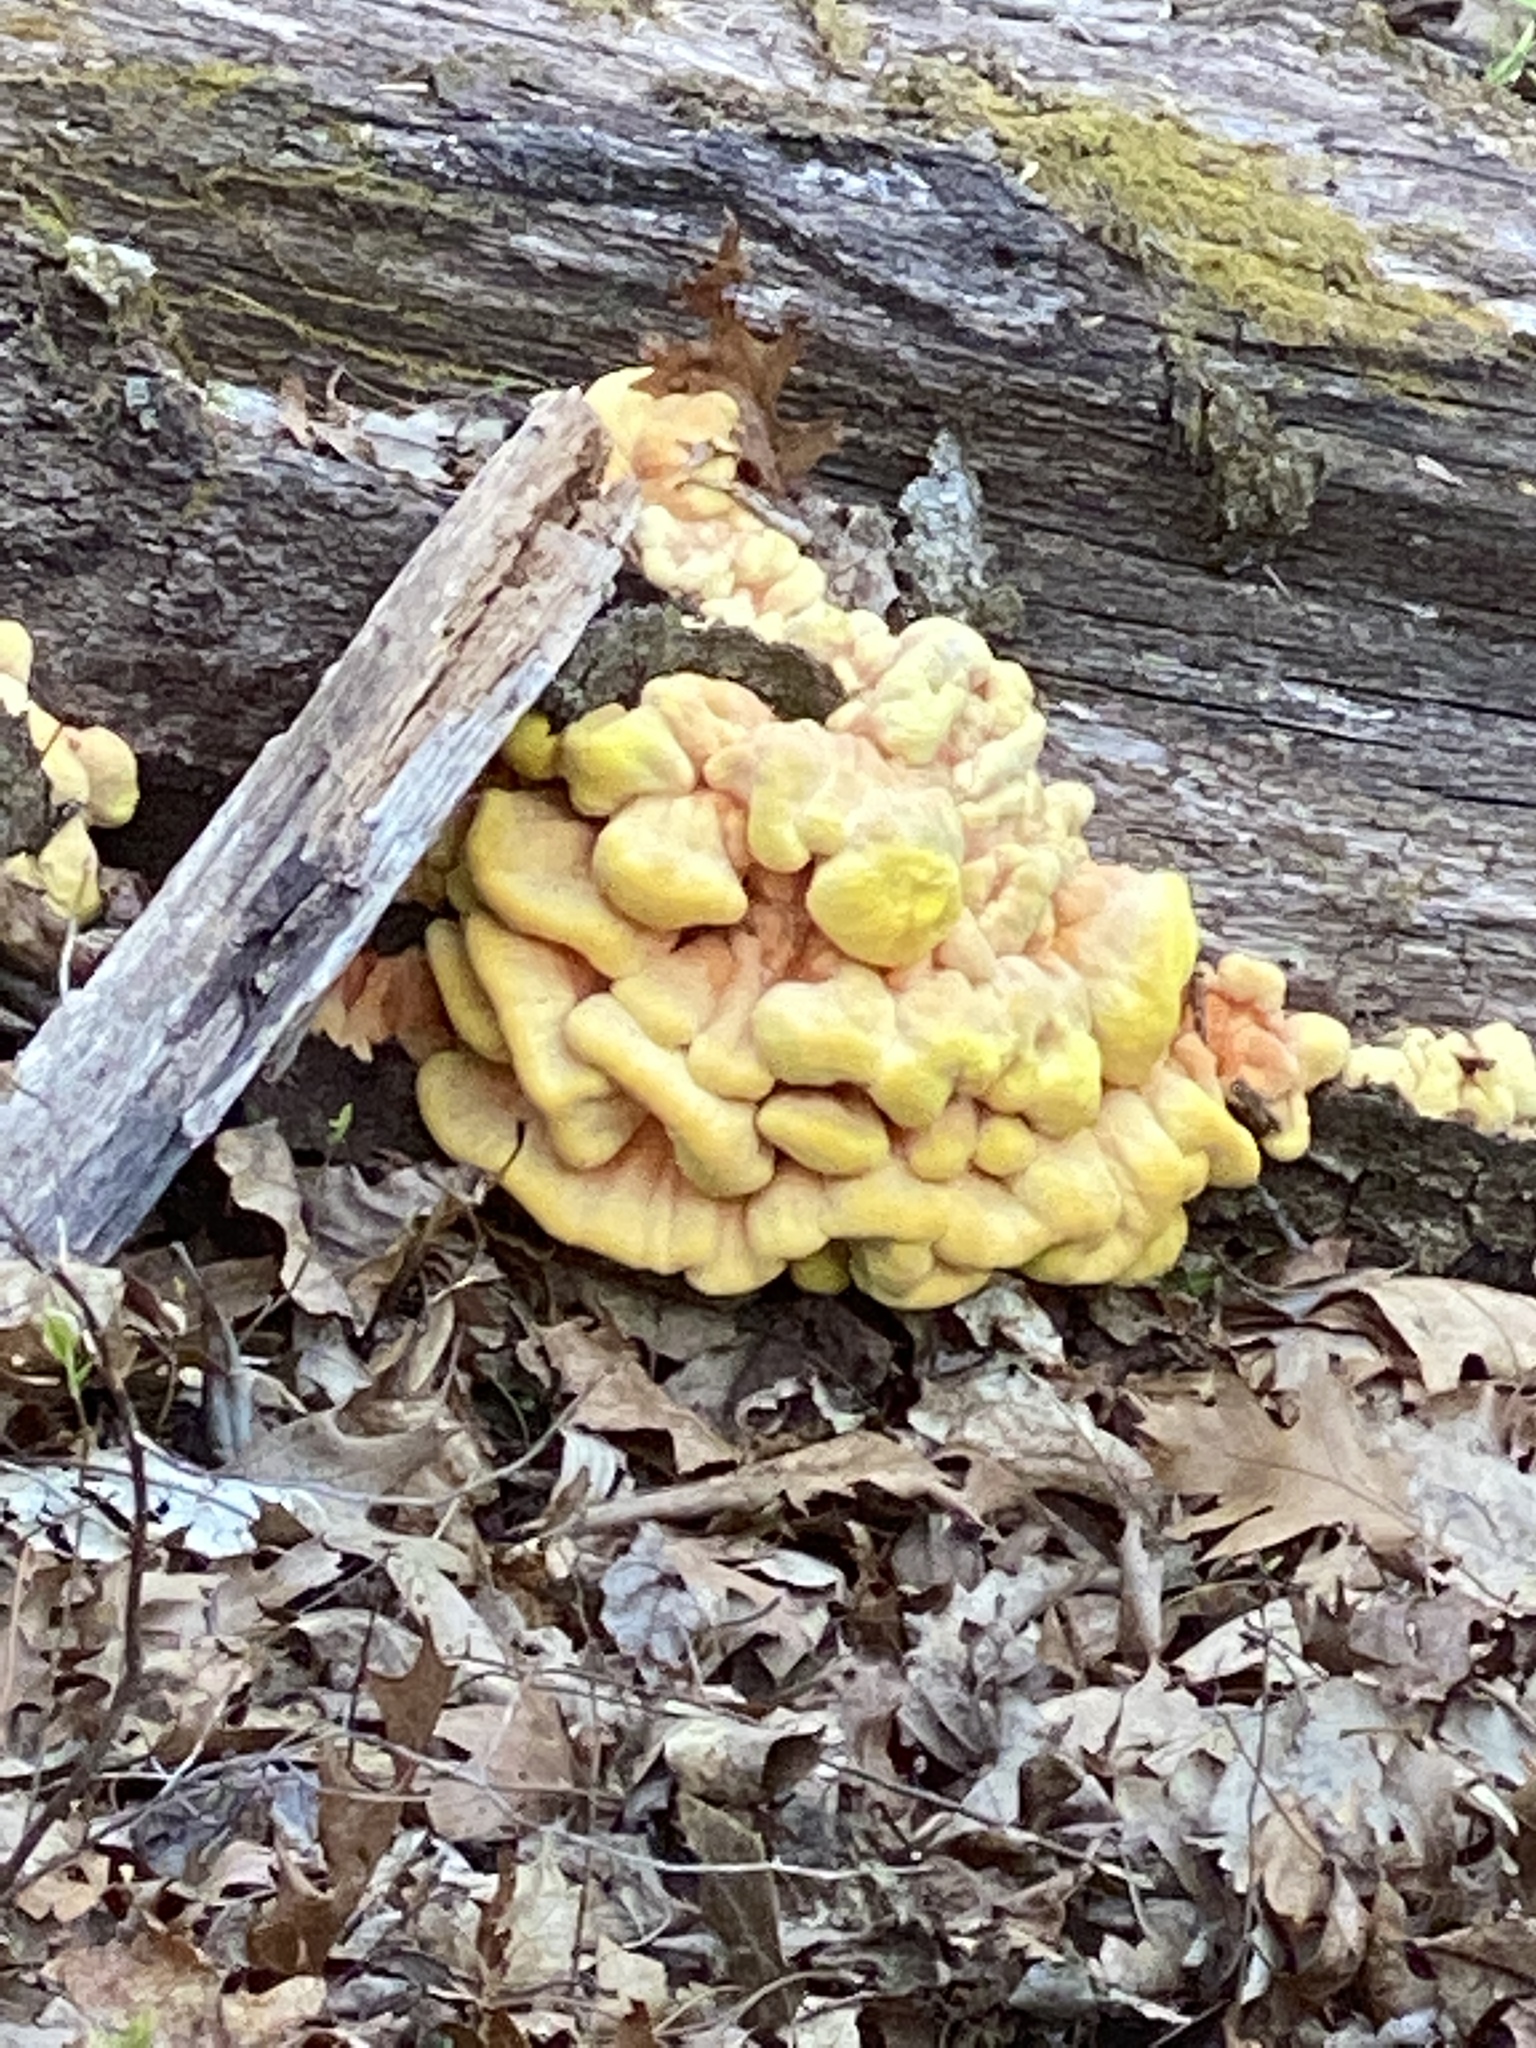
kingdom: Fungi
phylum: Basidiomycota
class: Agaricomycetes
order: Polyporales
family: Laetiporaceae
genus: Laetiporus
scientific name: Laetiporus sulphureus
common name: Chicken of the woods
